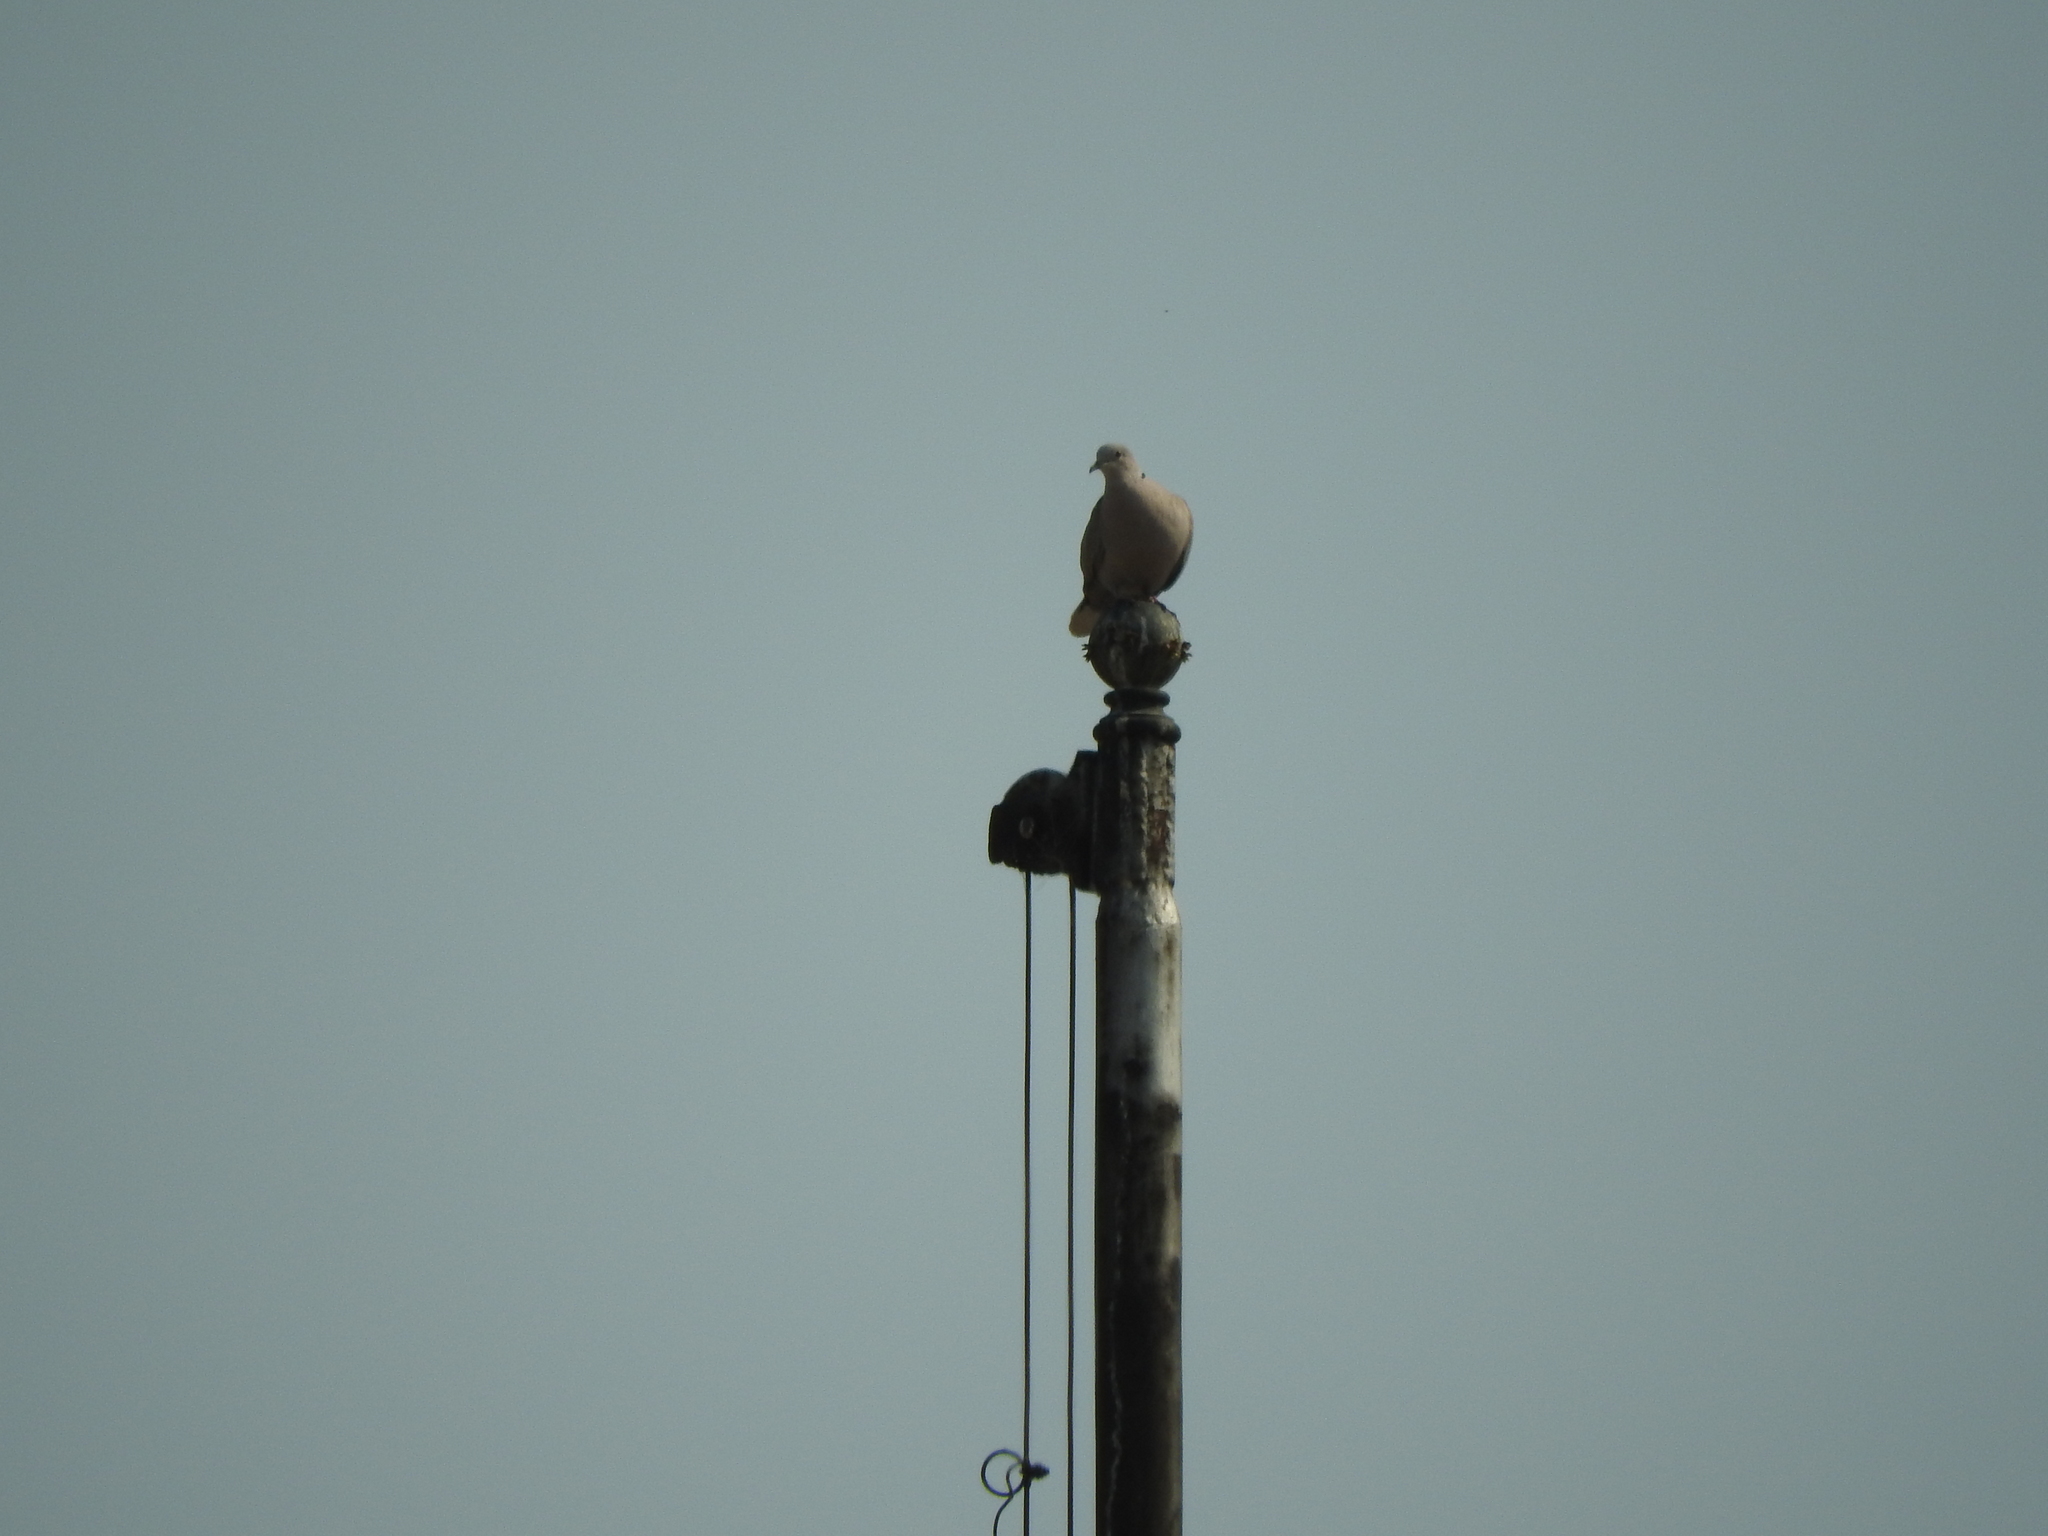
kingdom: Animalia
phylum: Chordata
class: Aves
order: Columbiformes
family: Columbidae
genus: Streptopelia
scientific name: Streptopelia decaocto
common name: Eurasian collared dove
